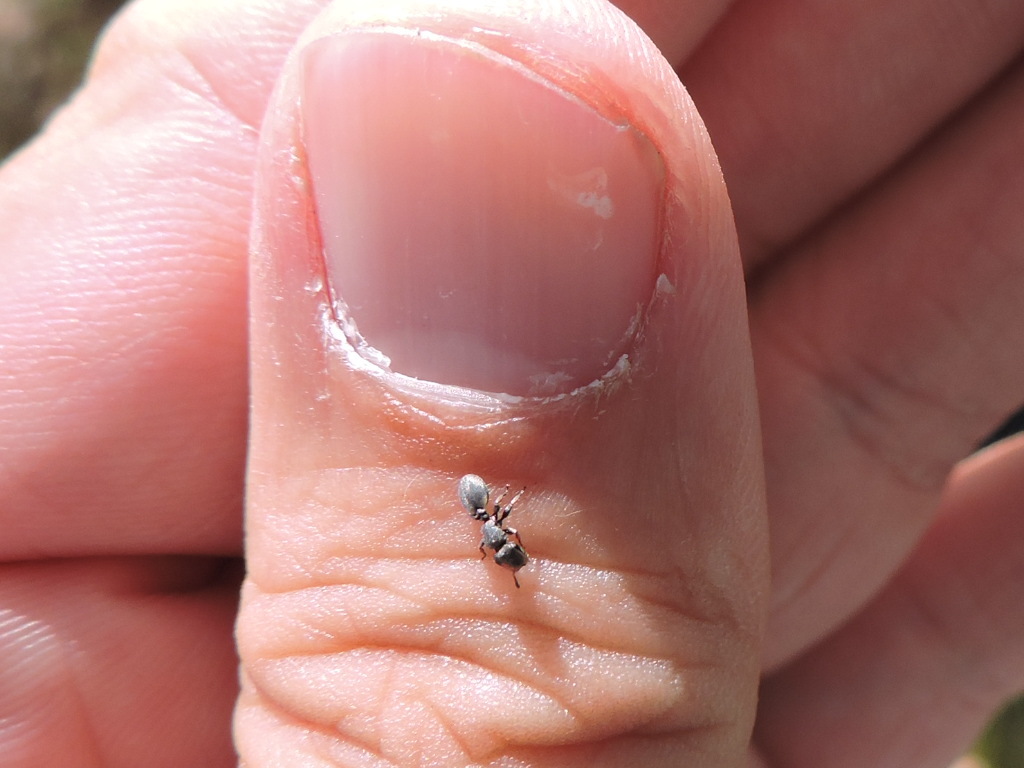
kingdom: Animalia
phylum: Arthropoda
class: Insecta
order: Hymenoptera
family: Formicidae
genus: Cephalotes
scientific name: Cephalotes texanus
